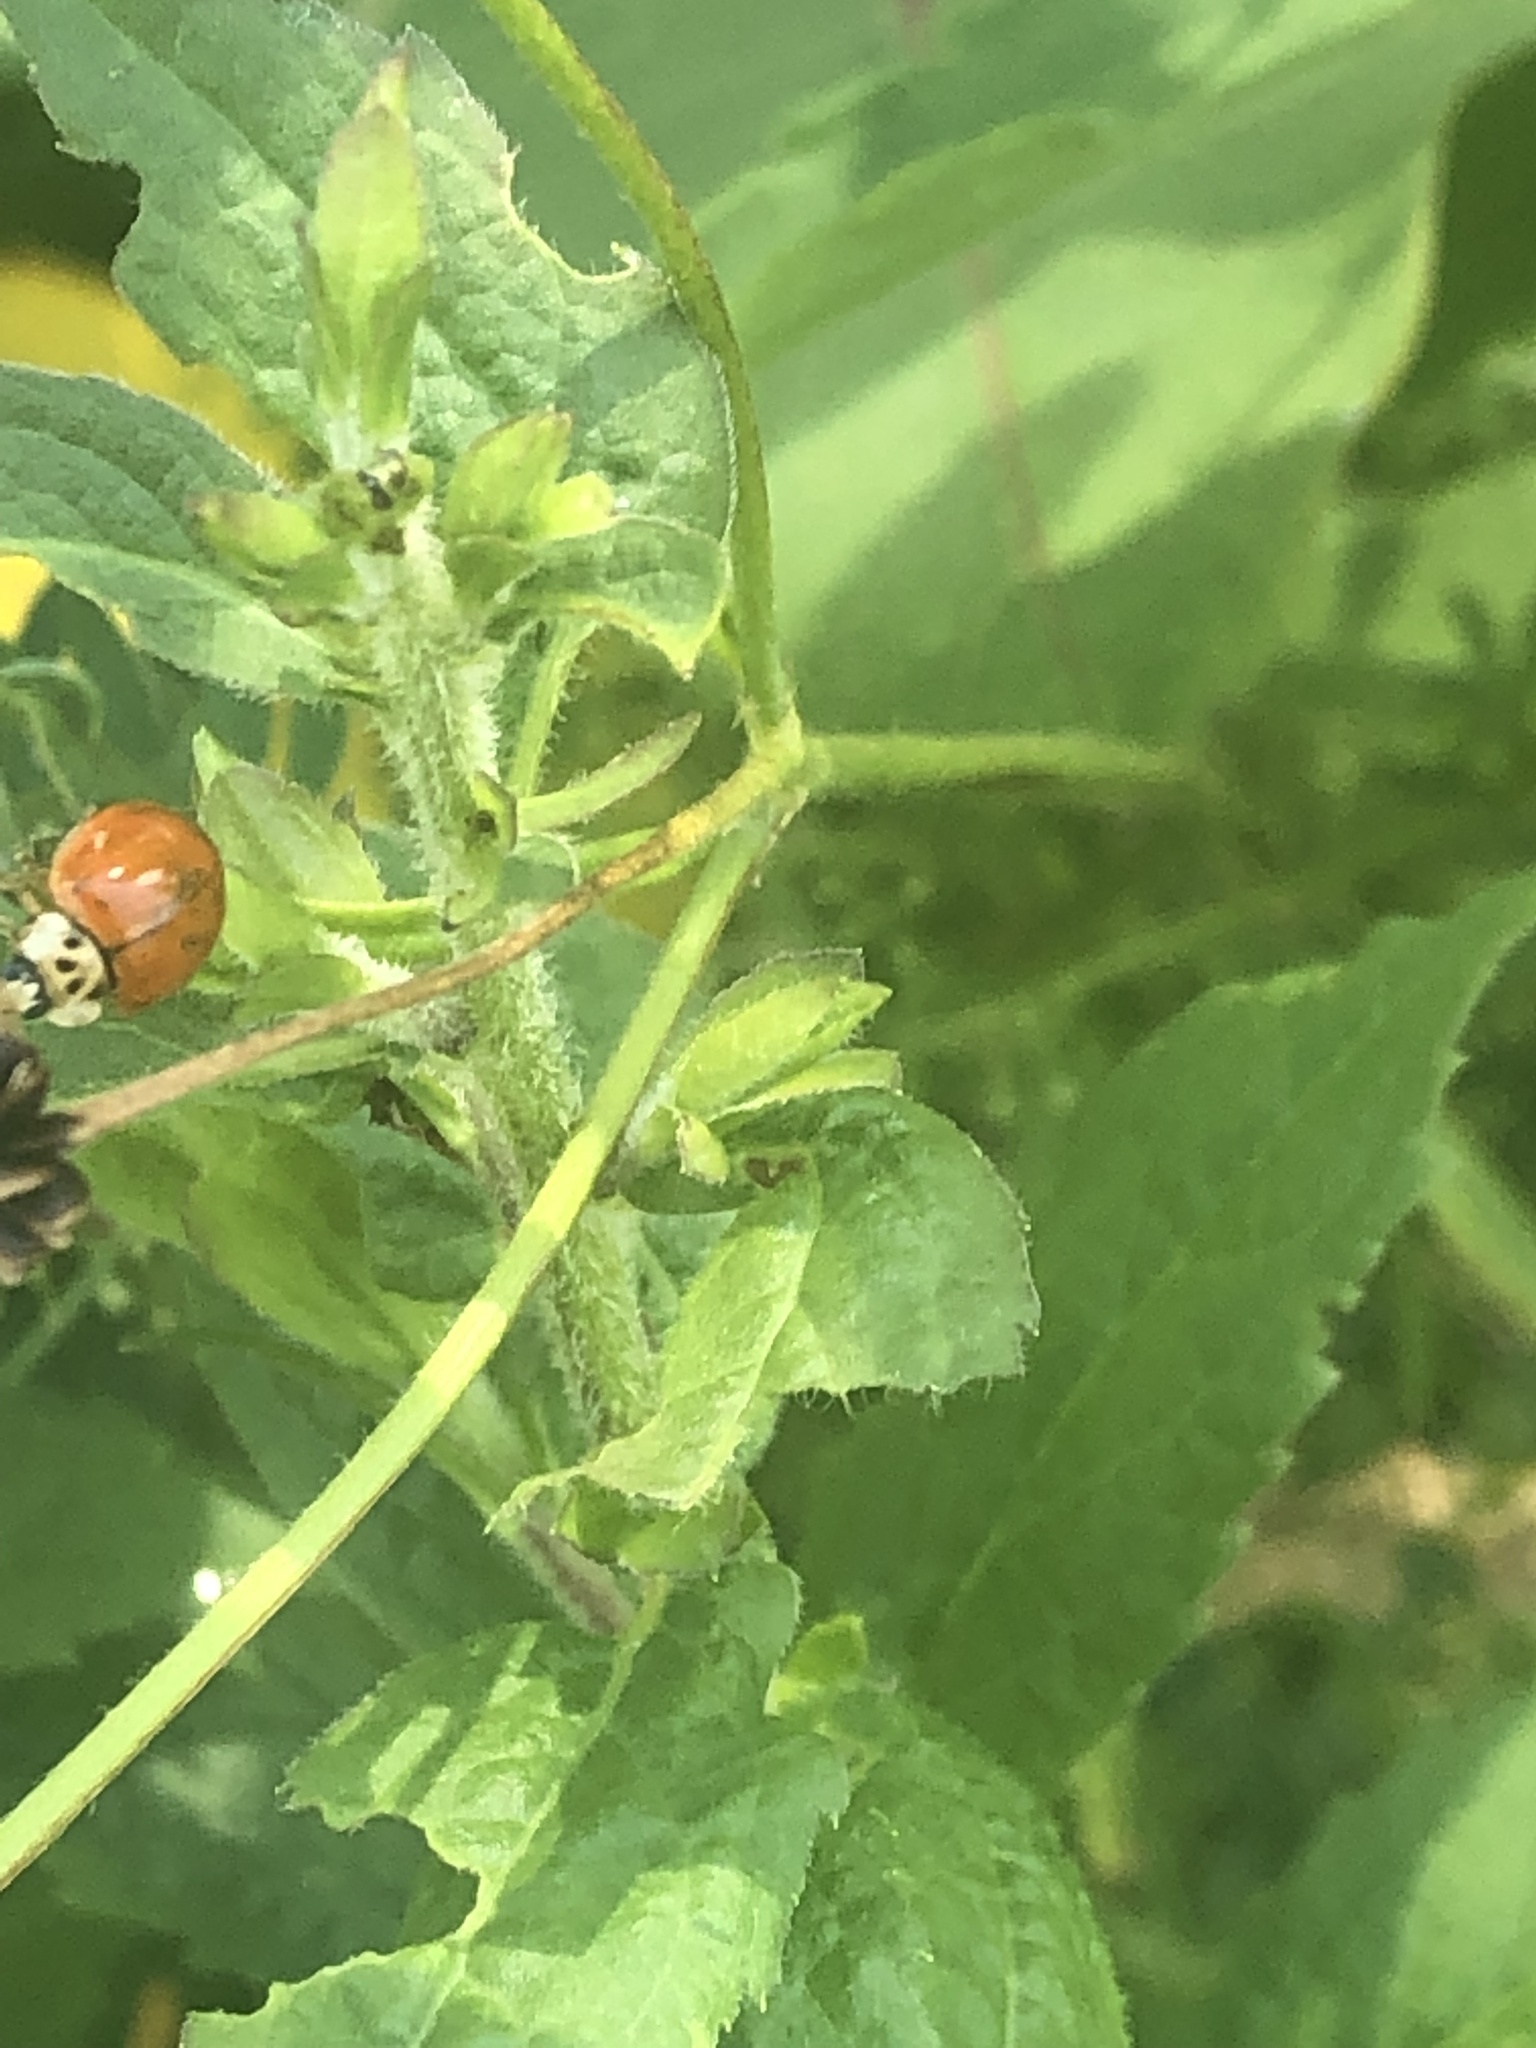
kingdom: Animalia
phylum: Arthropoda
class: Insecta
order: Coleoptera
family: Coccinellidae
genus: Harmonia
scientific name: Harmonia axyridis
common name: Harlequin ladybird
